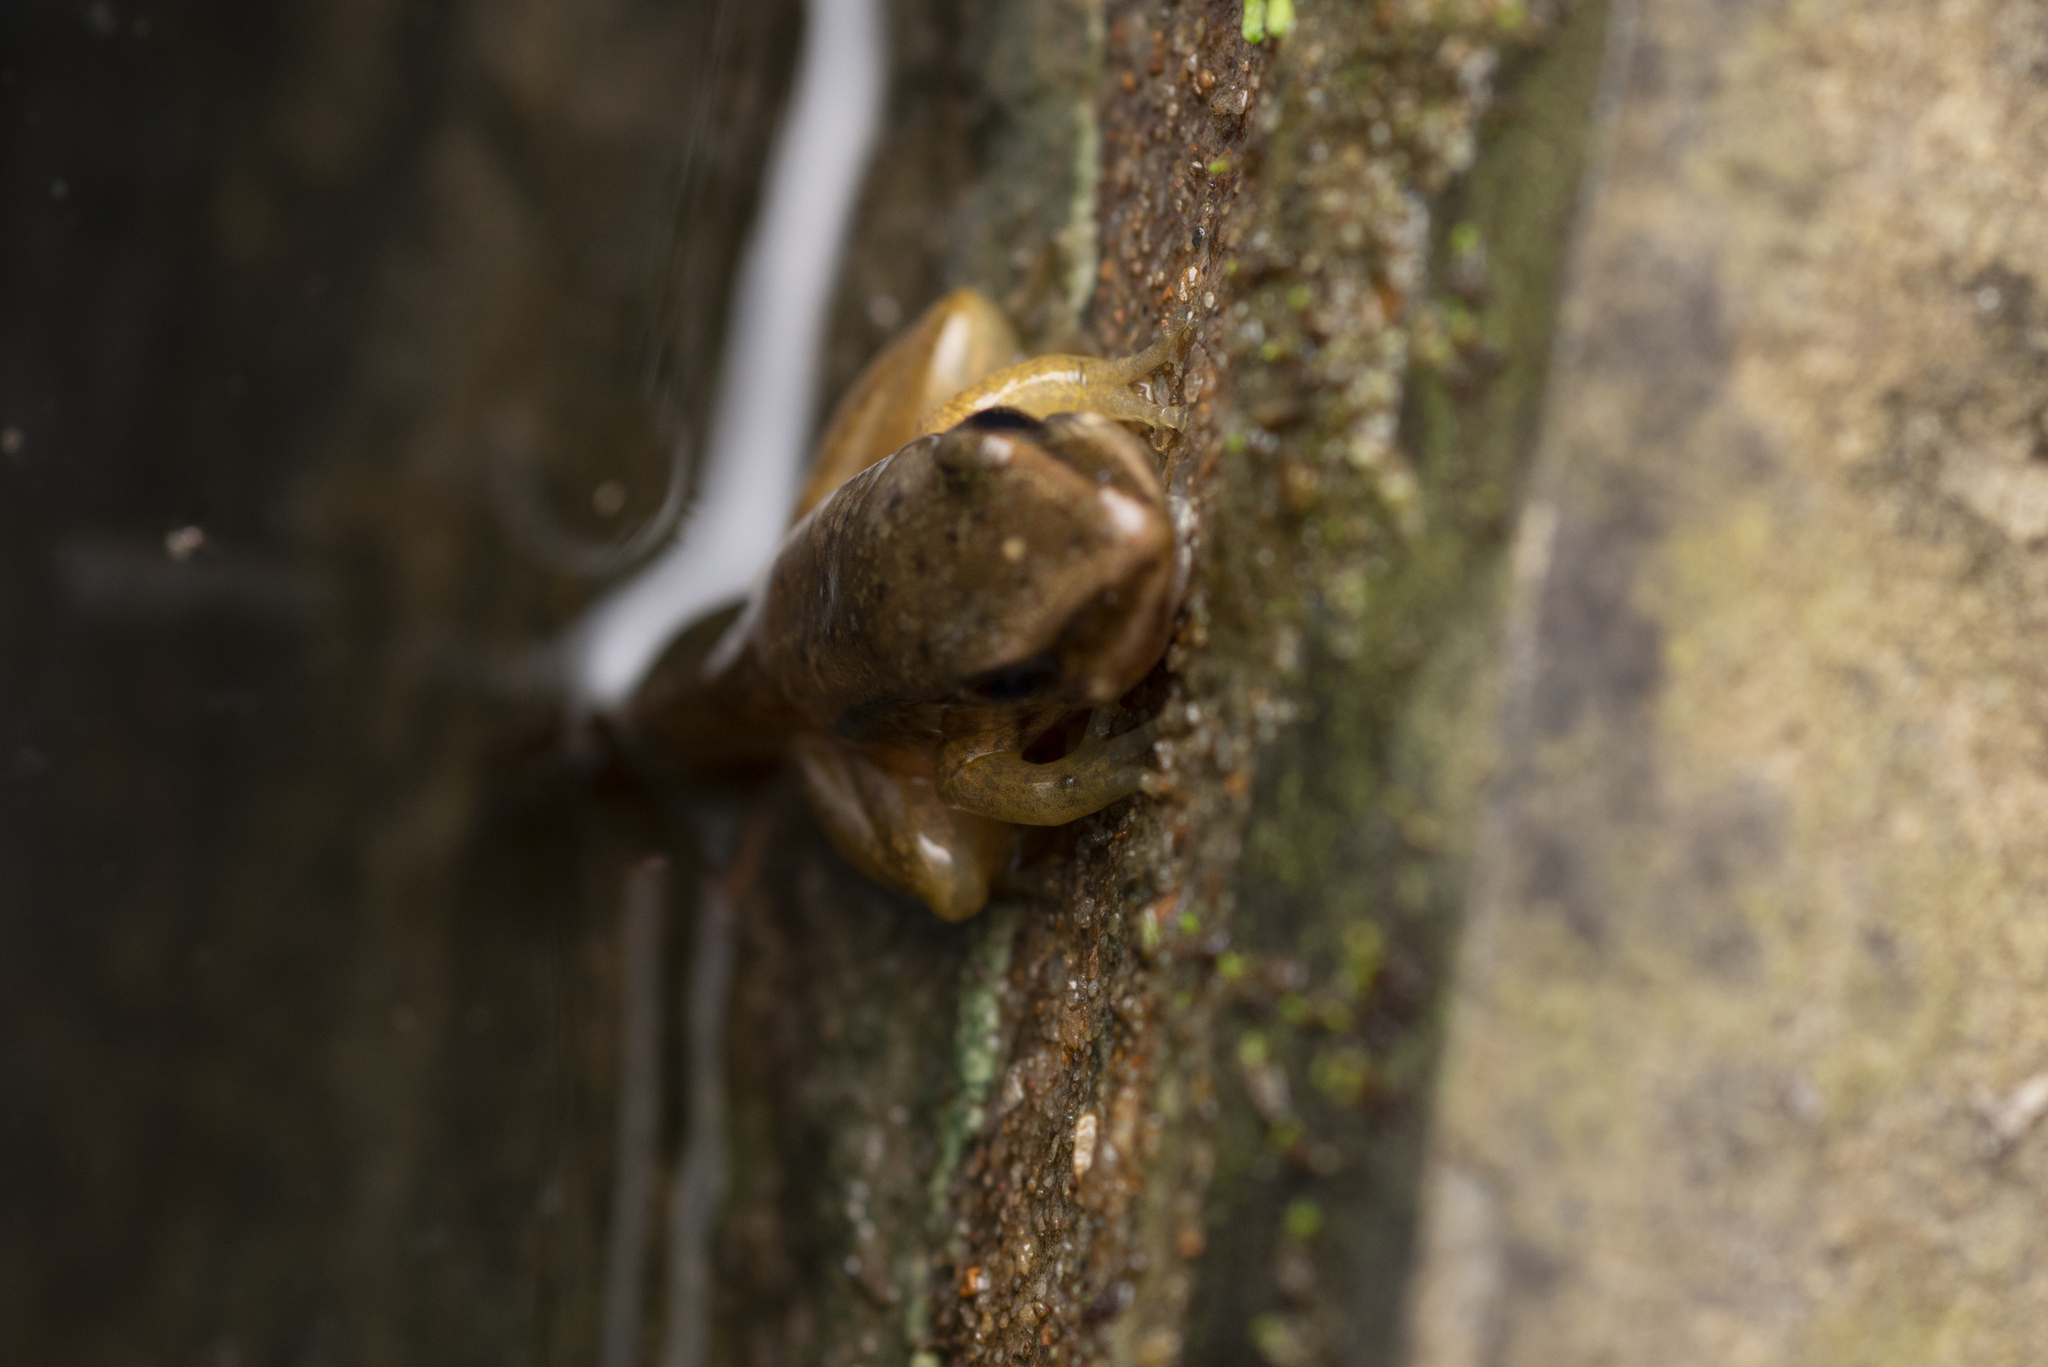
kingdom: Animalia
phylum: Chordata
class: Amphibia
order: Anura
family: Rhacophoridae
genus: Polypedates
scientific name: Polypedates megacephalus
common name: Hong kong whipping frog
